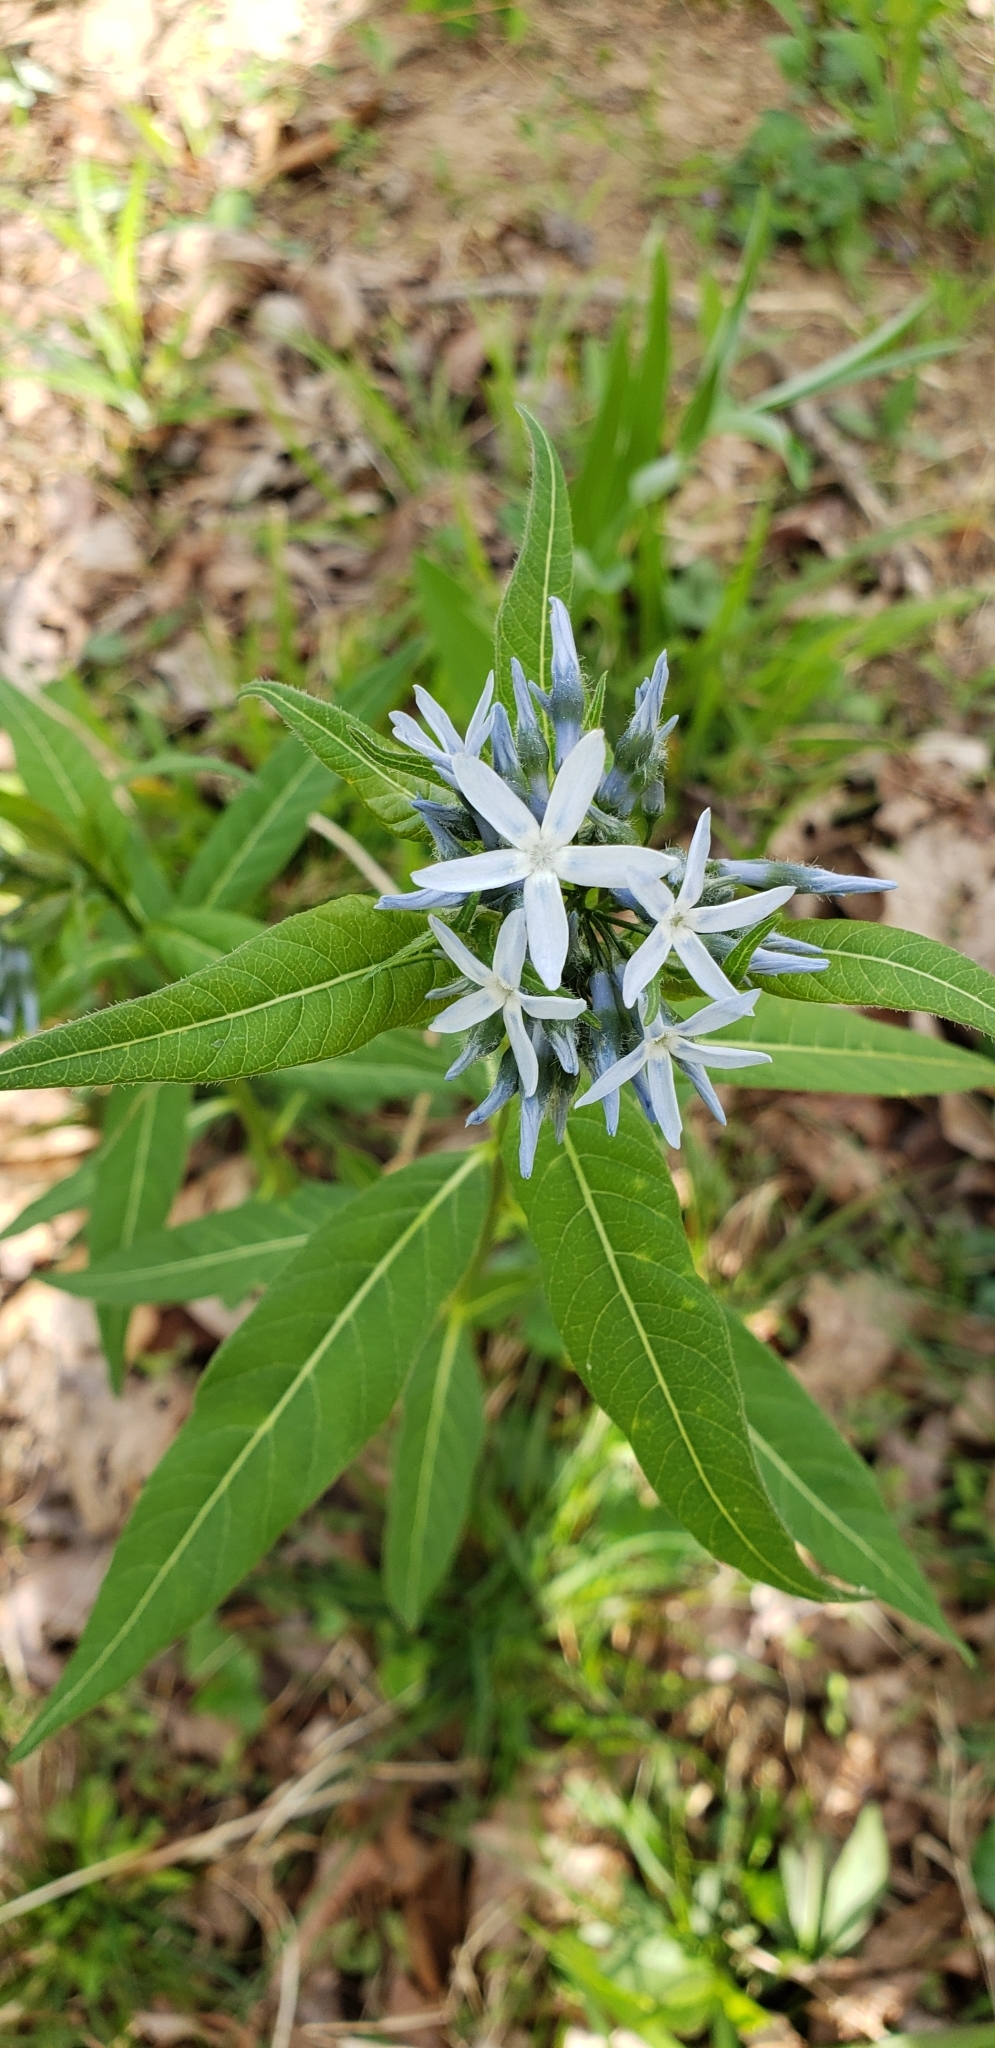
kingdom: Plantae
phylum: Tracheophyta
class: Magnoliopsida
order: Gentianales
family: Apocynaceae
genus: Amsonia
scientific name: Amsonia tabernaemontana
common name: Texas-star
